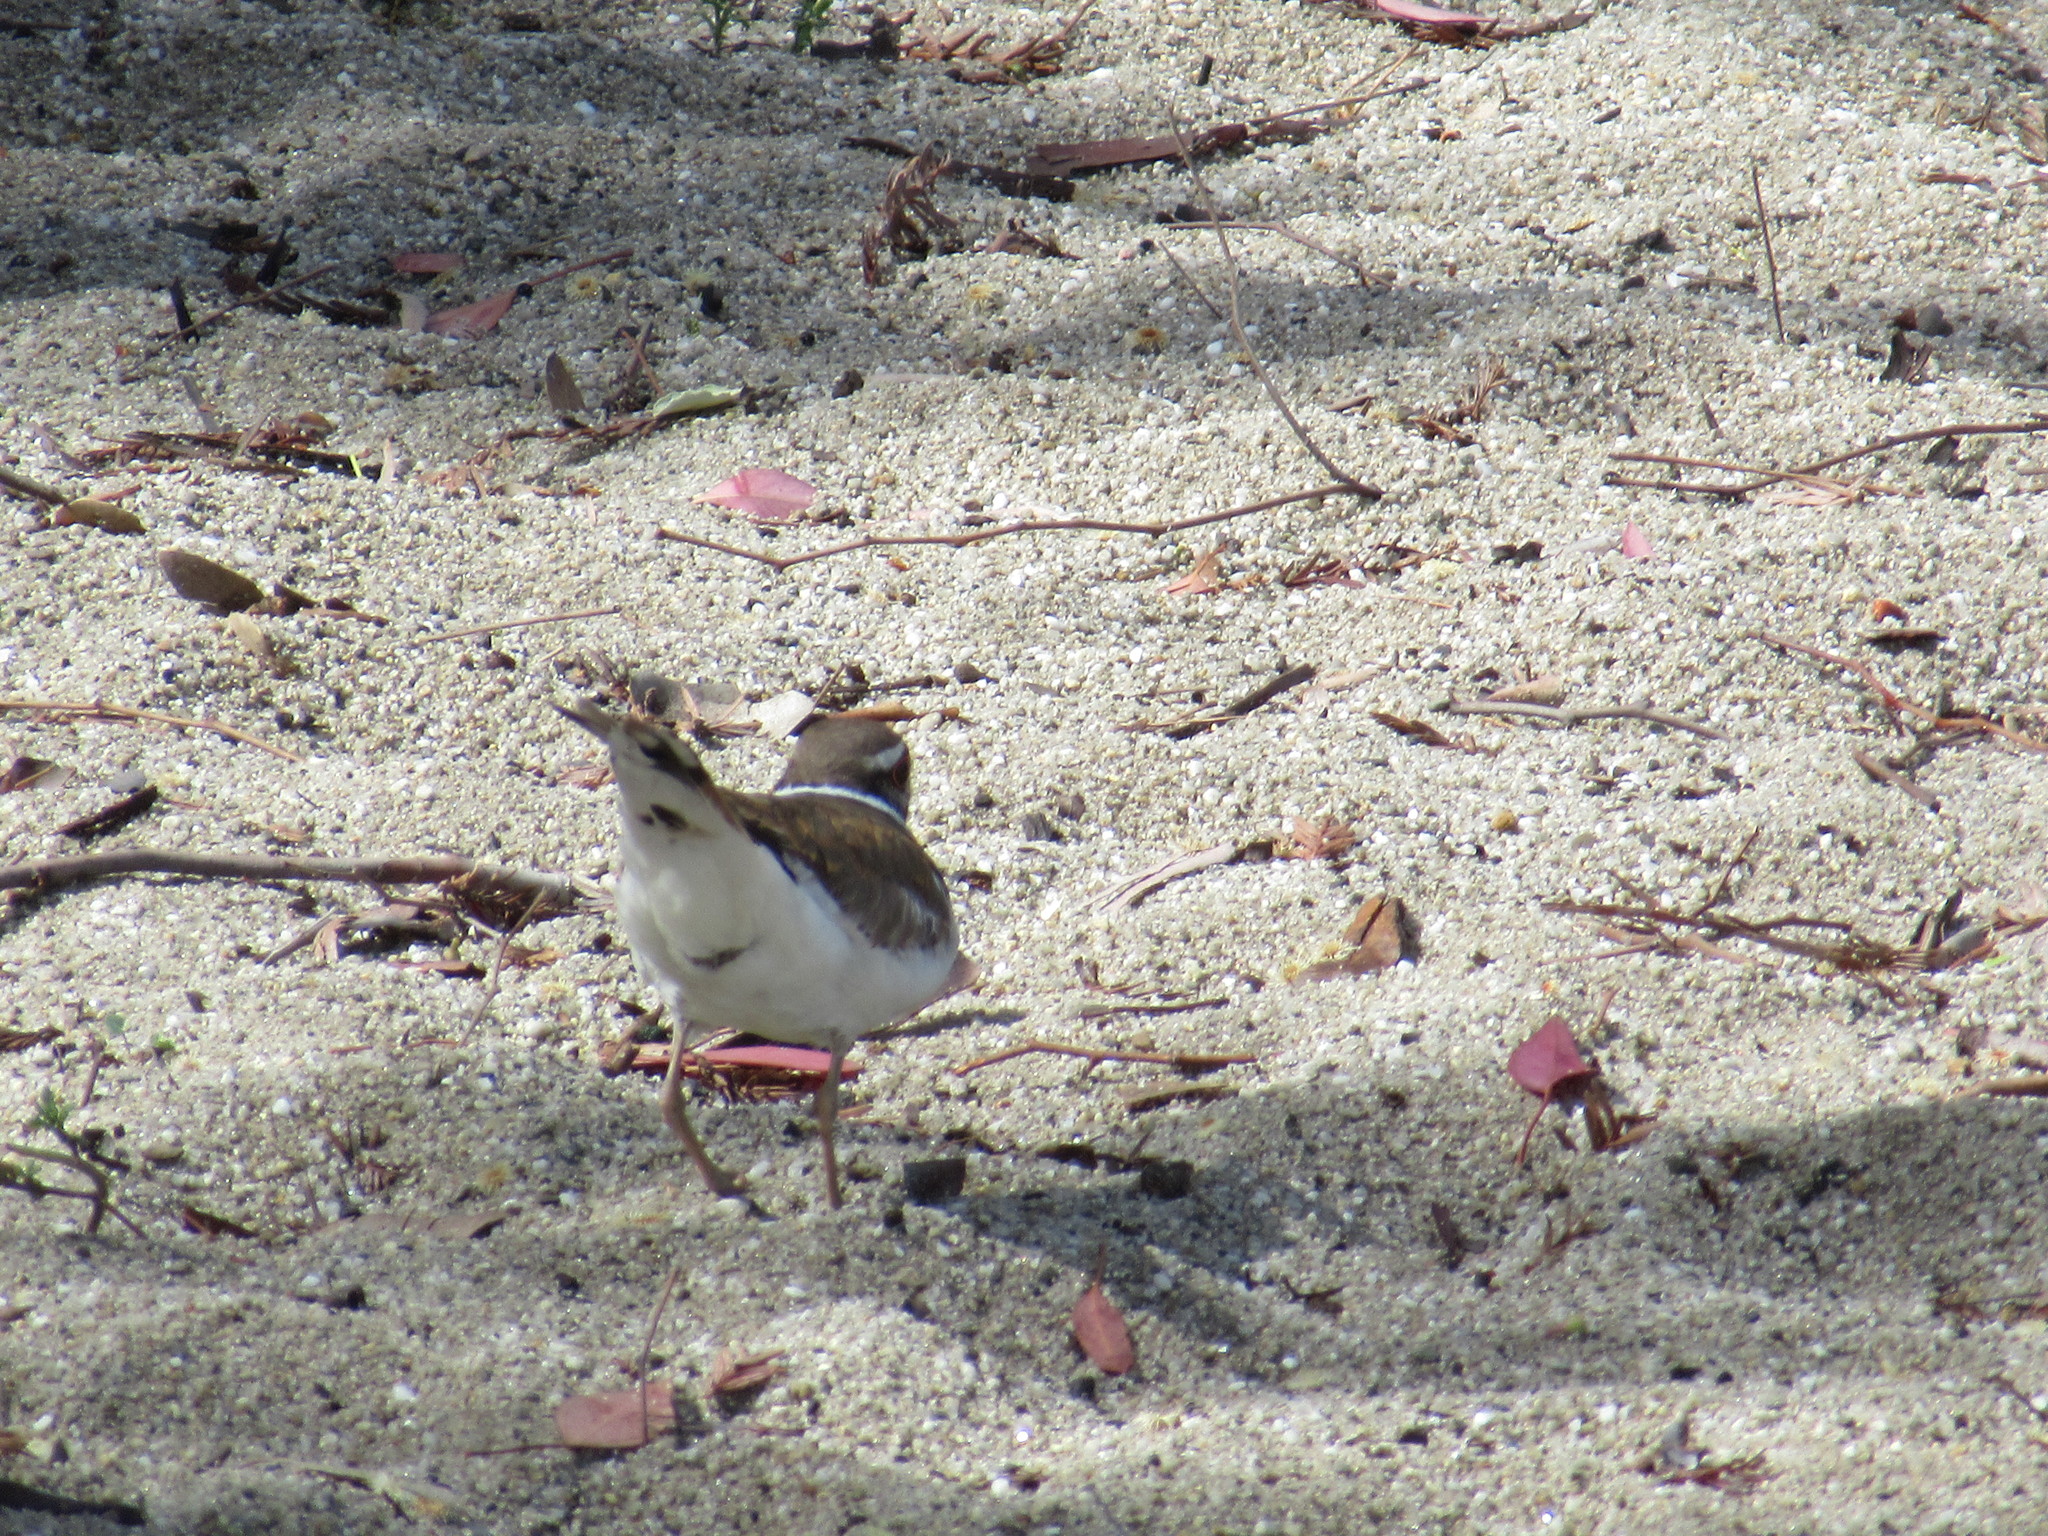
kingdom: Animalia
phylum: Chordata
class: Aves
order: Charadriiformes
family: Charadriidae
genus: Charadrius
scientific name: Charadrius vociferus
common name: Killdeer
